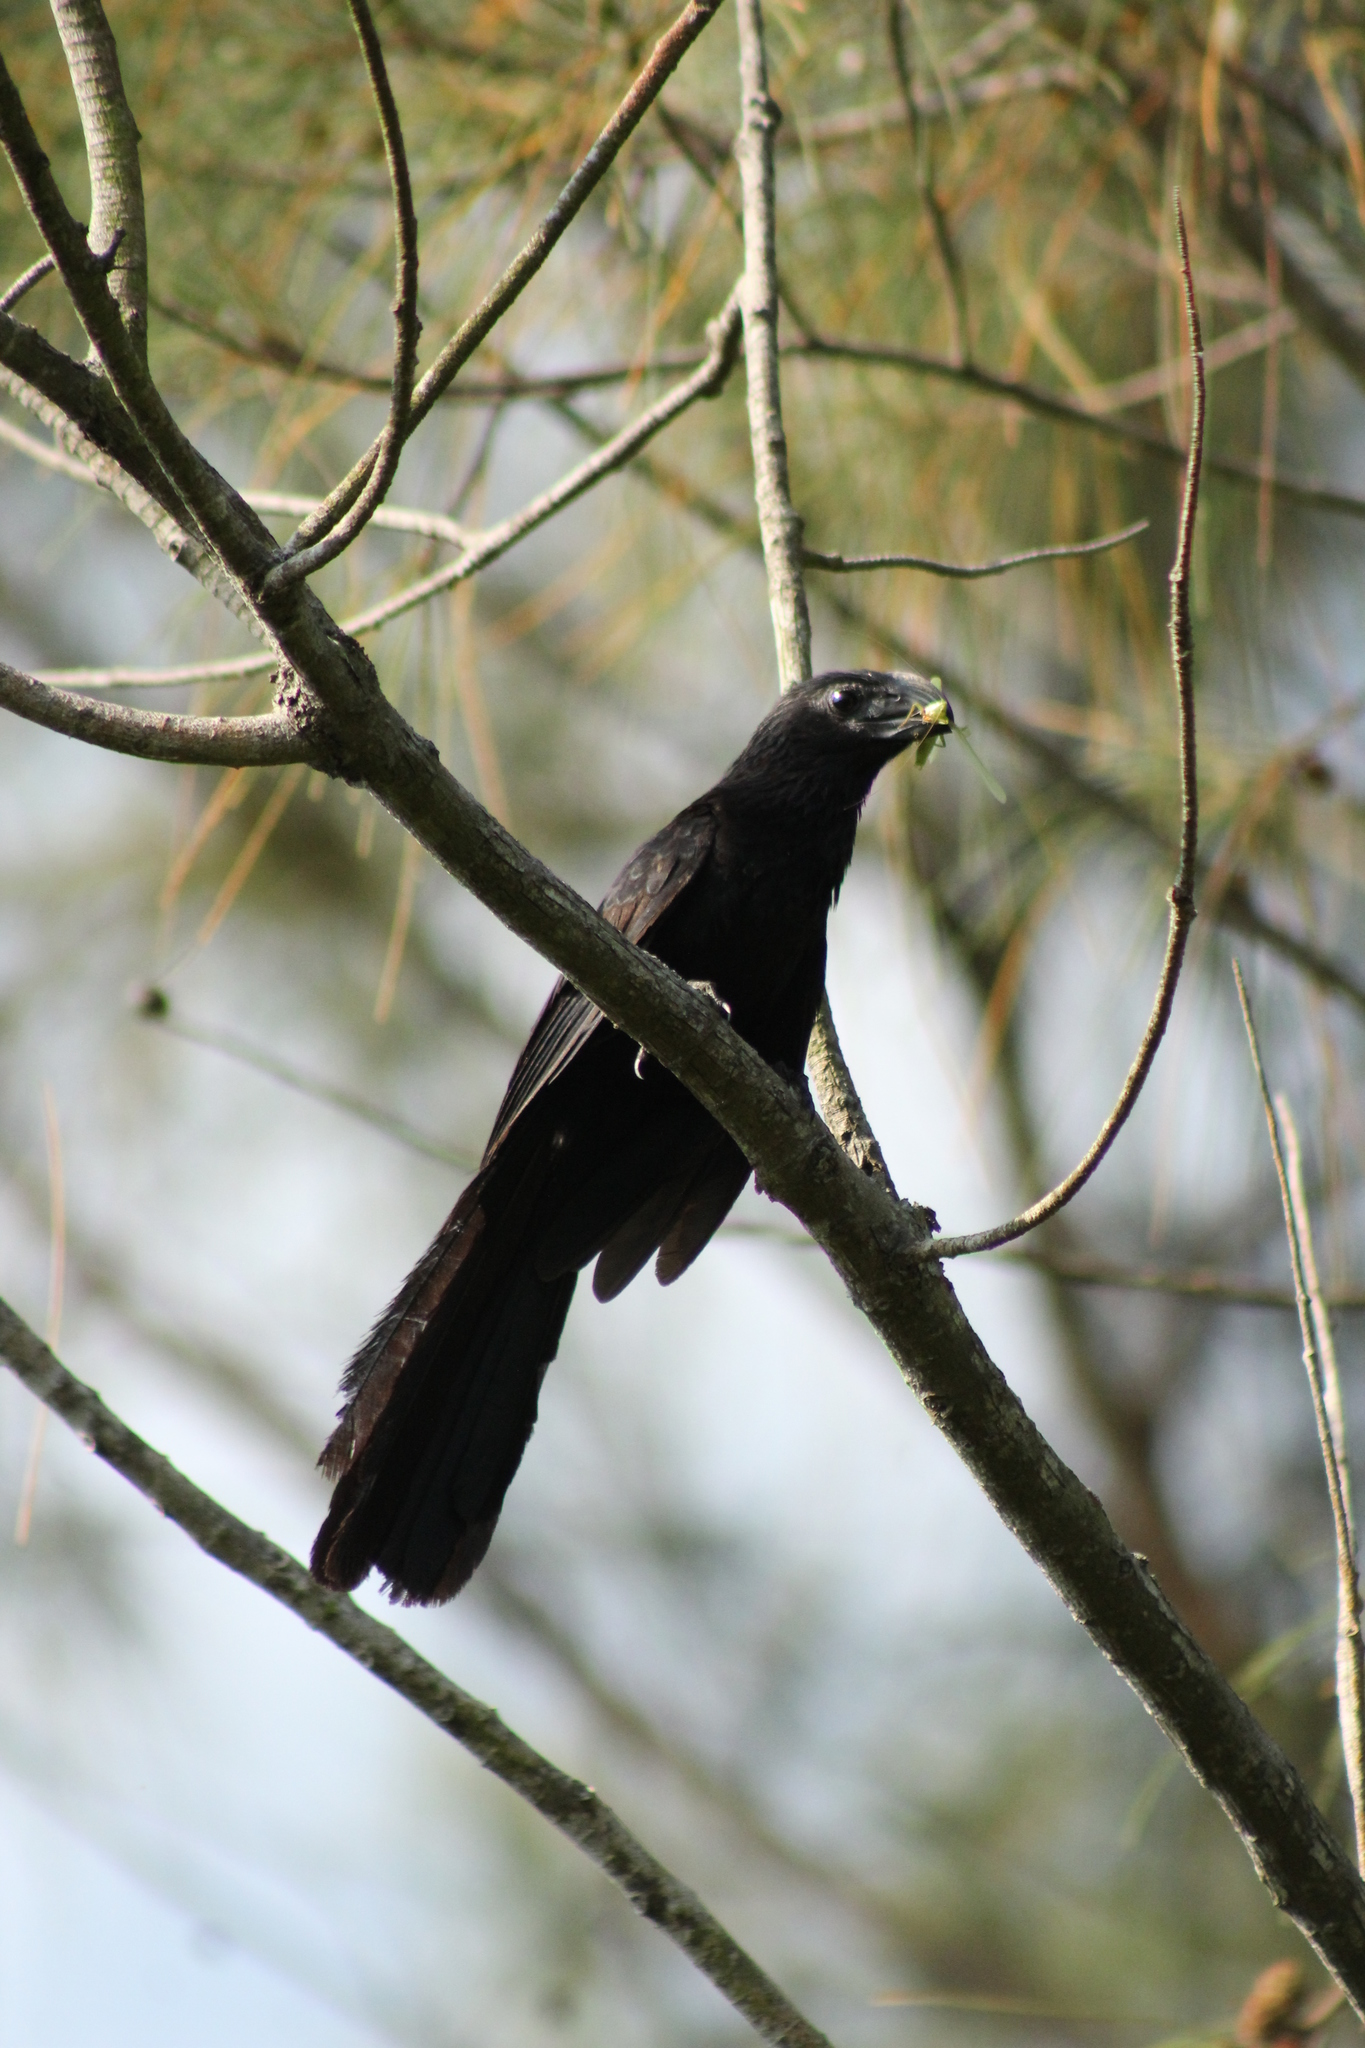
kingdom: Animalia
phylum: Chordata
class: Aves
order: Cuculiformes
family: Cuculidae
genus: Crotophaga
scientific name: Crotophaga sulcirostris
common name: Groove-billed ani
